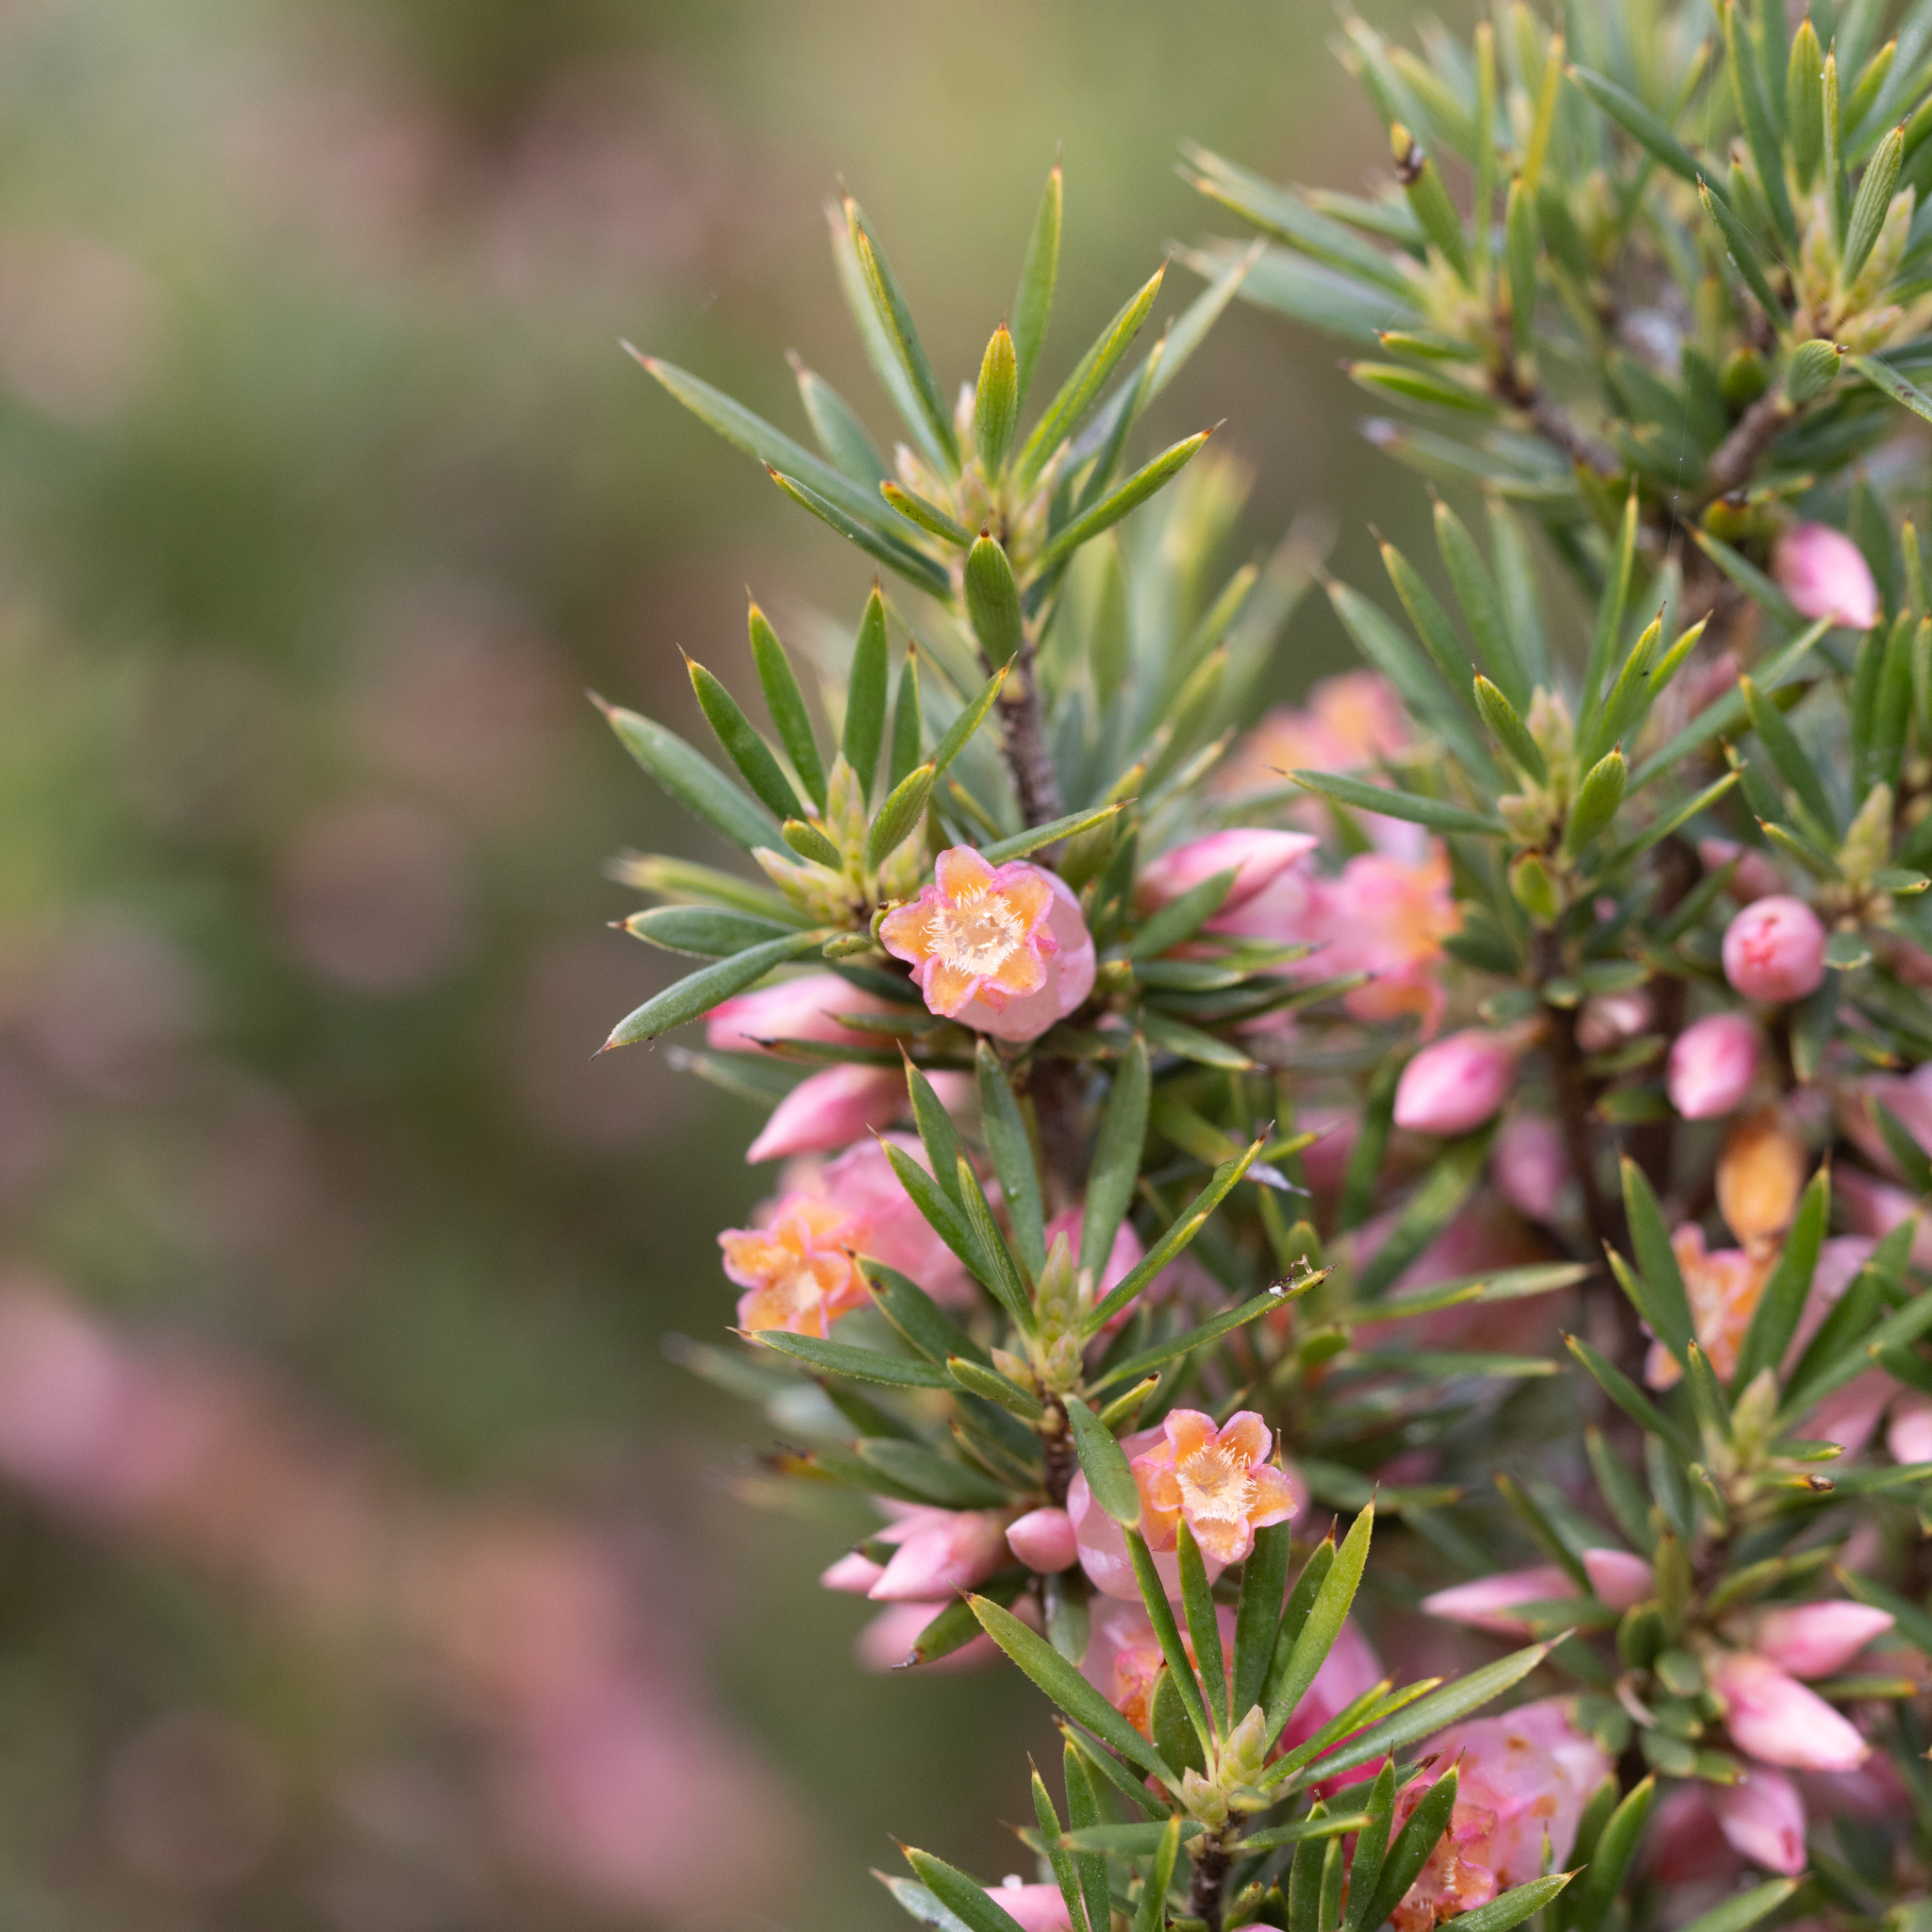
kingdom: Plantae
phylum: Tracheophyta
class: Magnoliopsida
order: Ericales
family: Ericaceae
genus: Brachyloma
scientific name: Brachyloma ericoides
